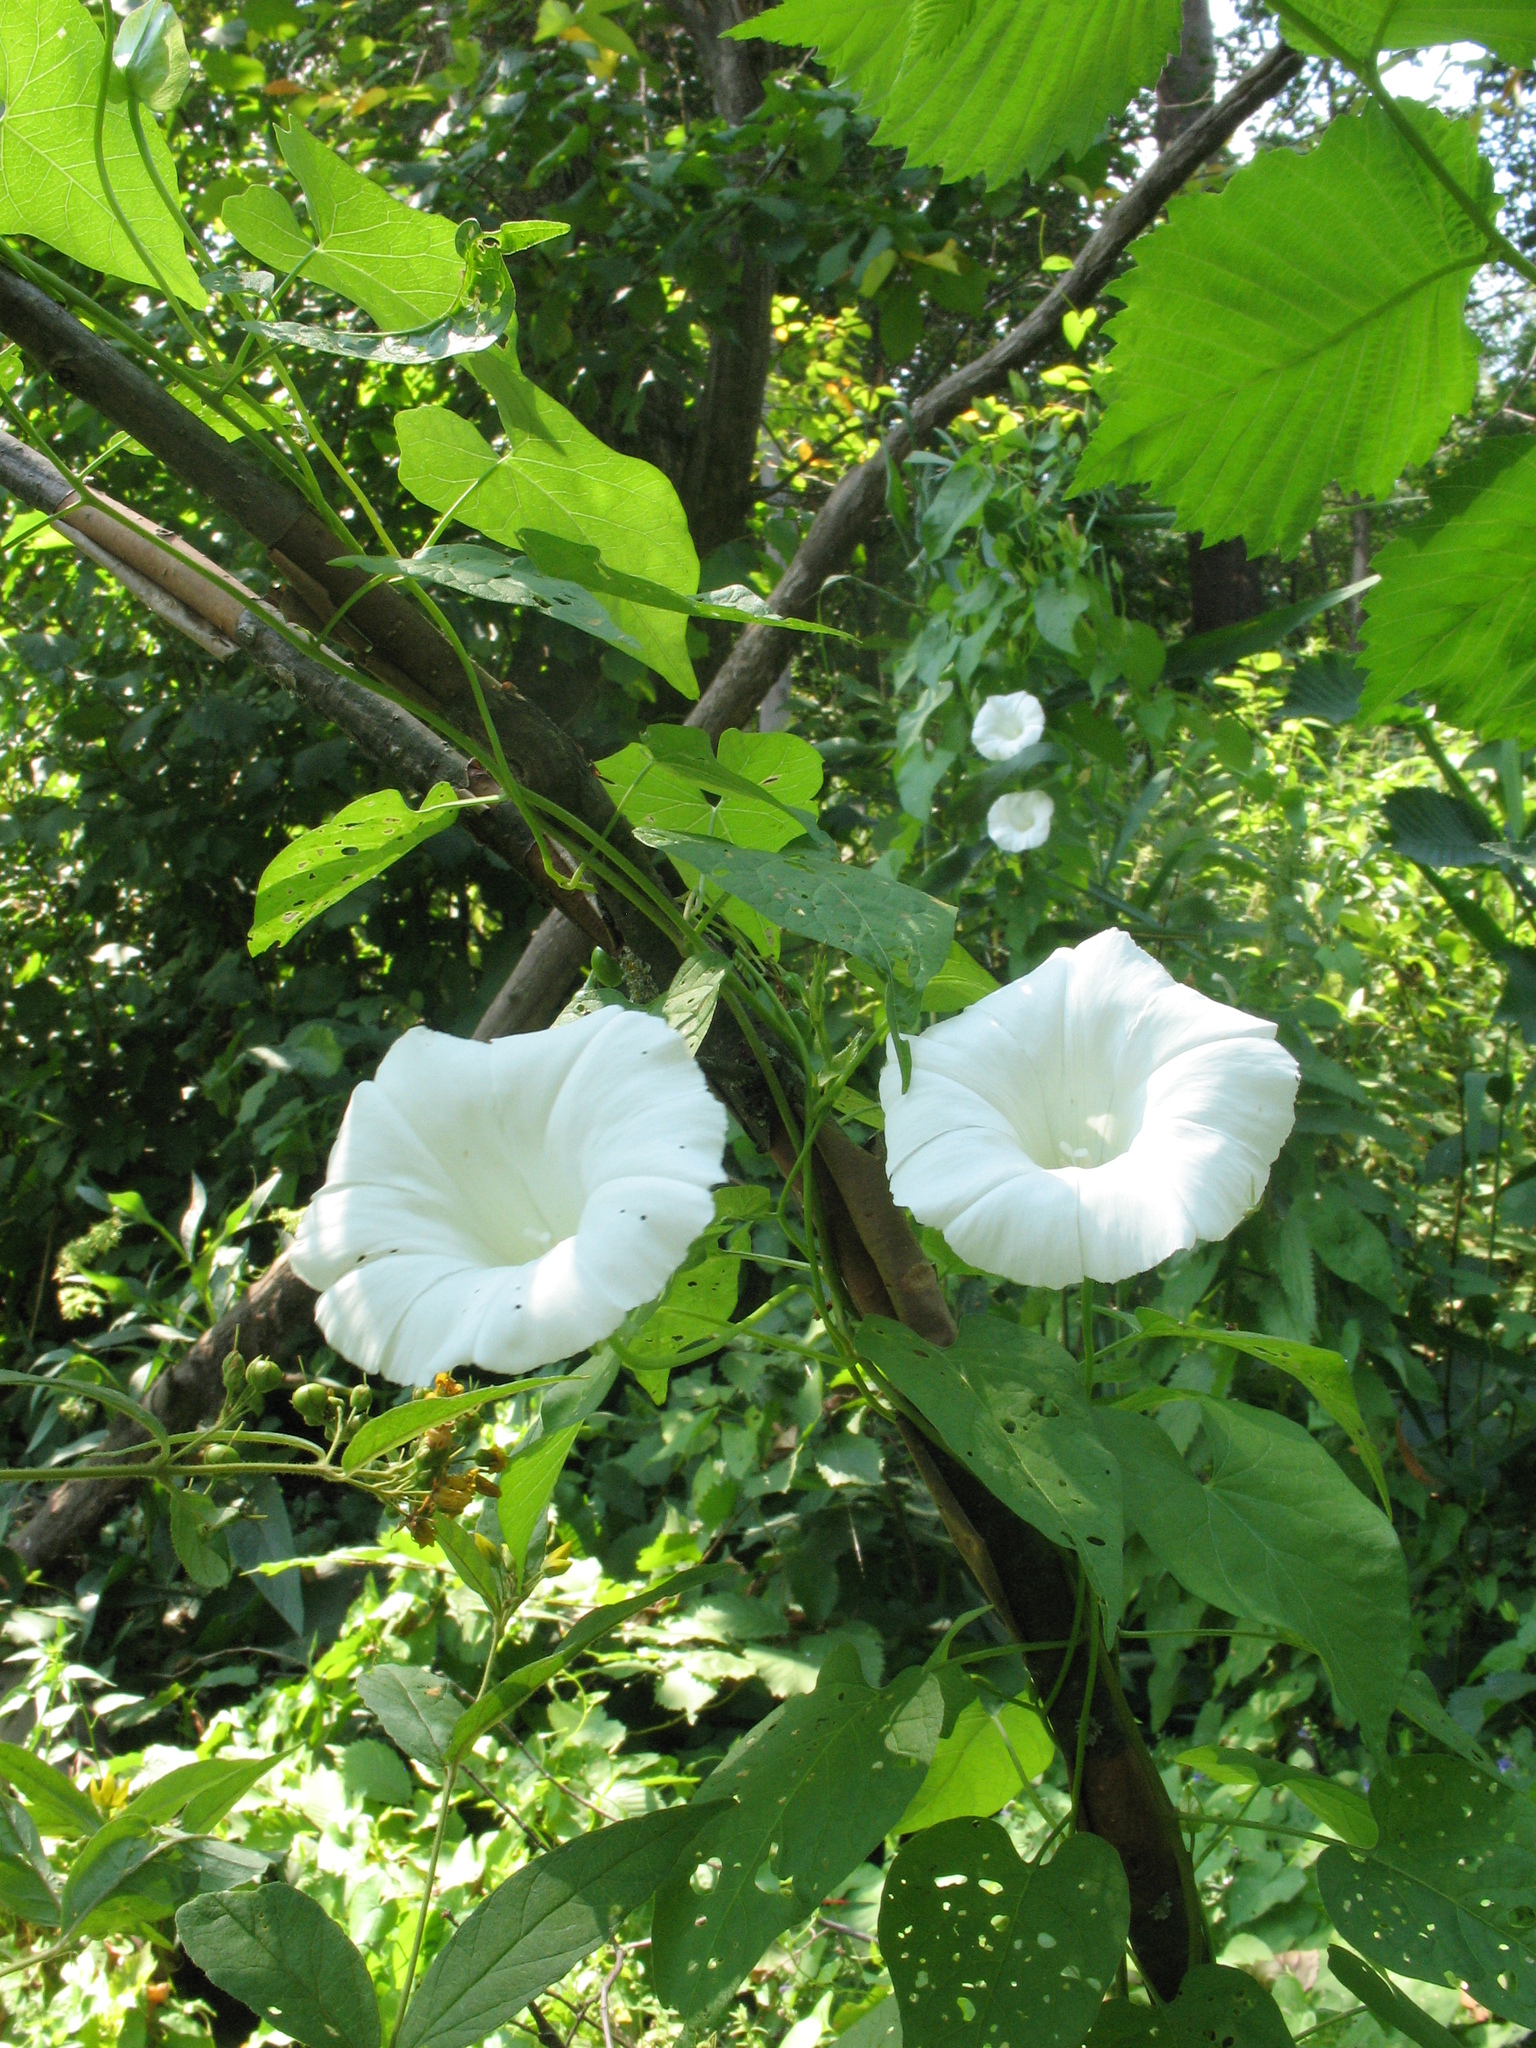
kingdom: Plantae
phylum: Tracheophyta
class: Magnoliopsida
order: Solanales
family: Convolvulaceae
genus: Calystegia
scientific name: Calystegia sepium
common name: Hedge bindweed
